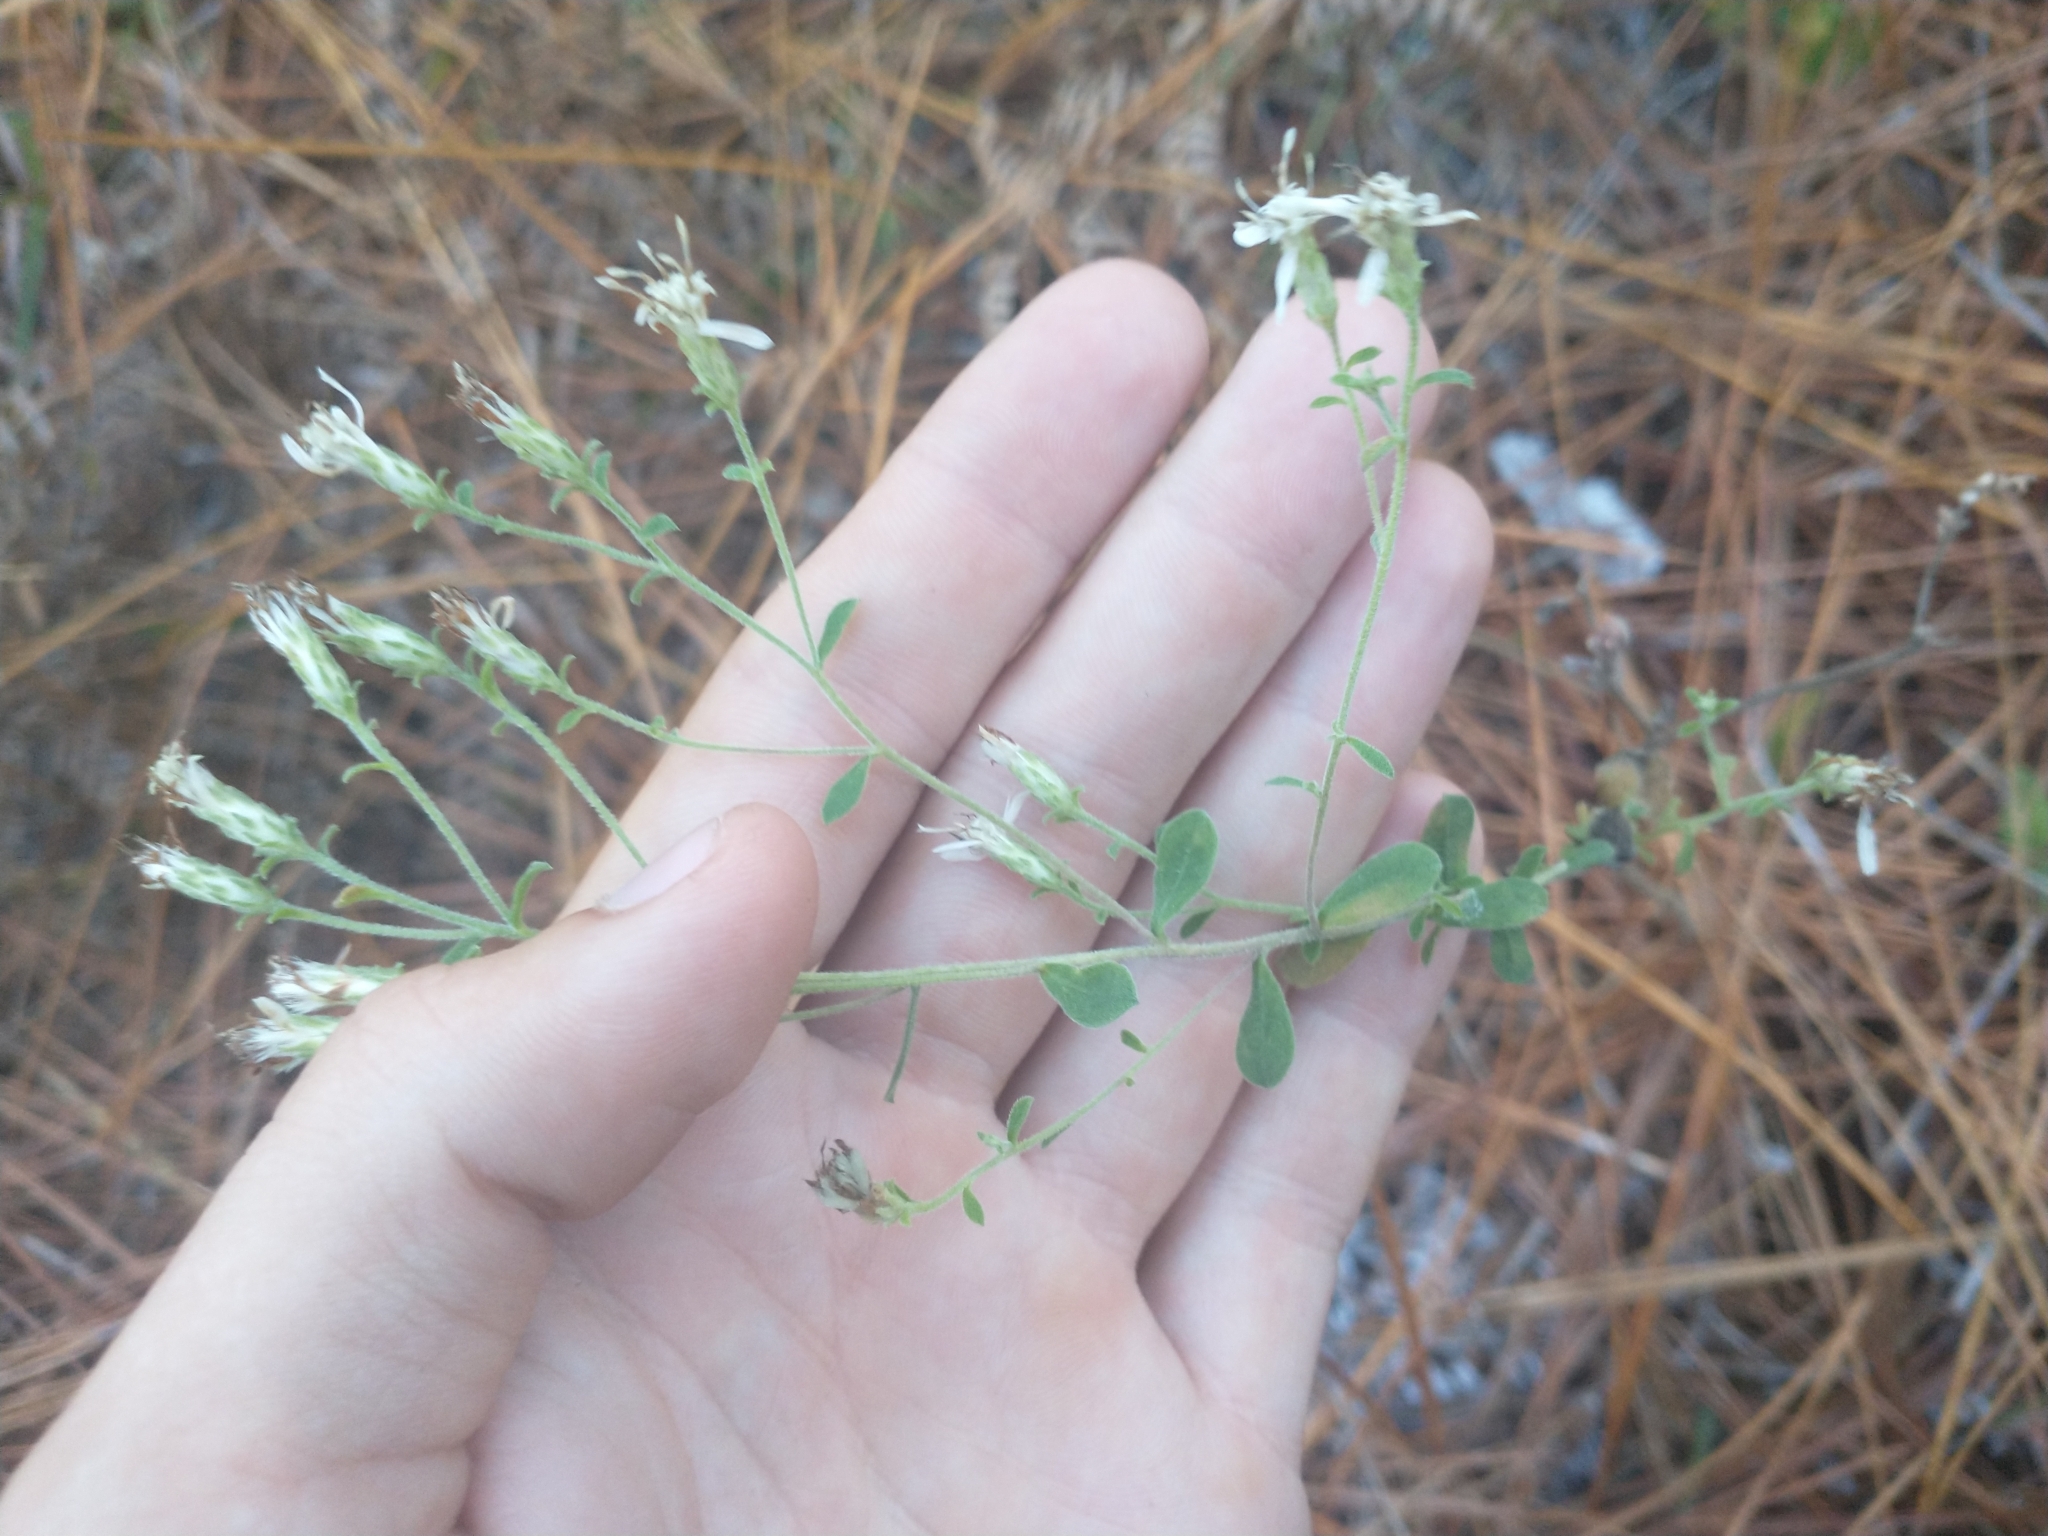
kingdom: Plantae
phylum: Tracheophyta
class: Magnoliopsida
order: Asterales
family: Asteraceae
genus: Sericocarpus
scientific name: Sericocarpus tortifolius
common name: Dixie aster
